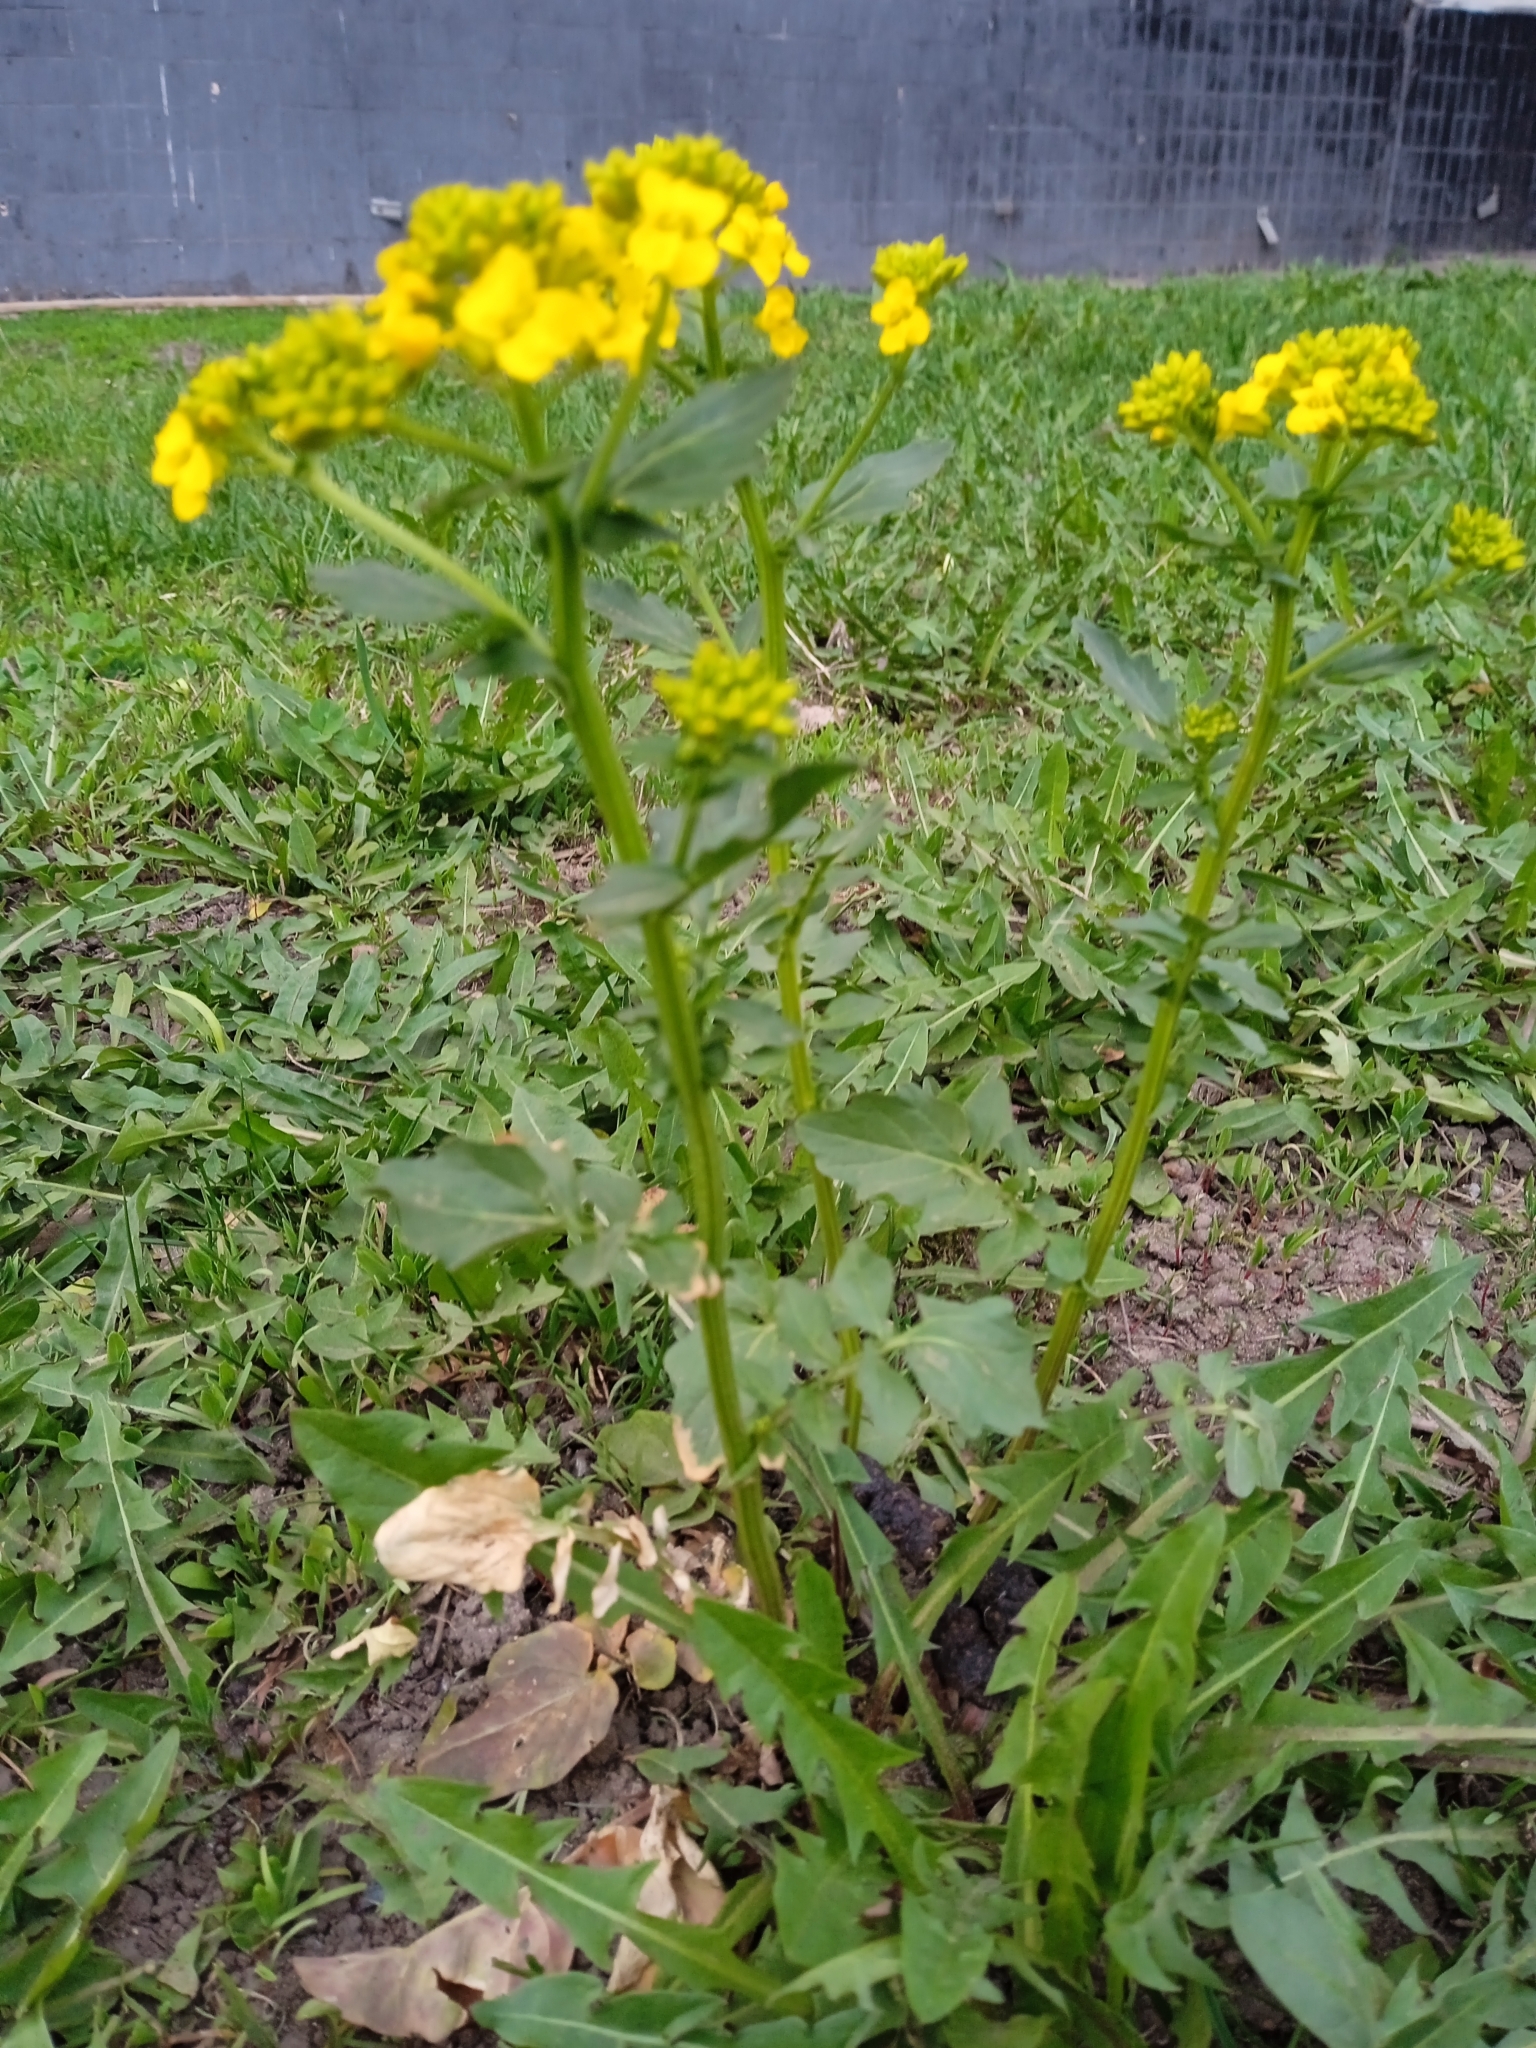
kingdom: Plantae
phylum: Tracheophyta
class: Magnoliopsida
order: Brassicales
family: Brassicaceae
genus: Barbarea
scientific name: Barbarea vulgaris
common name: Cressy-greens
